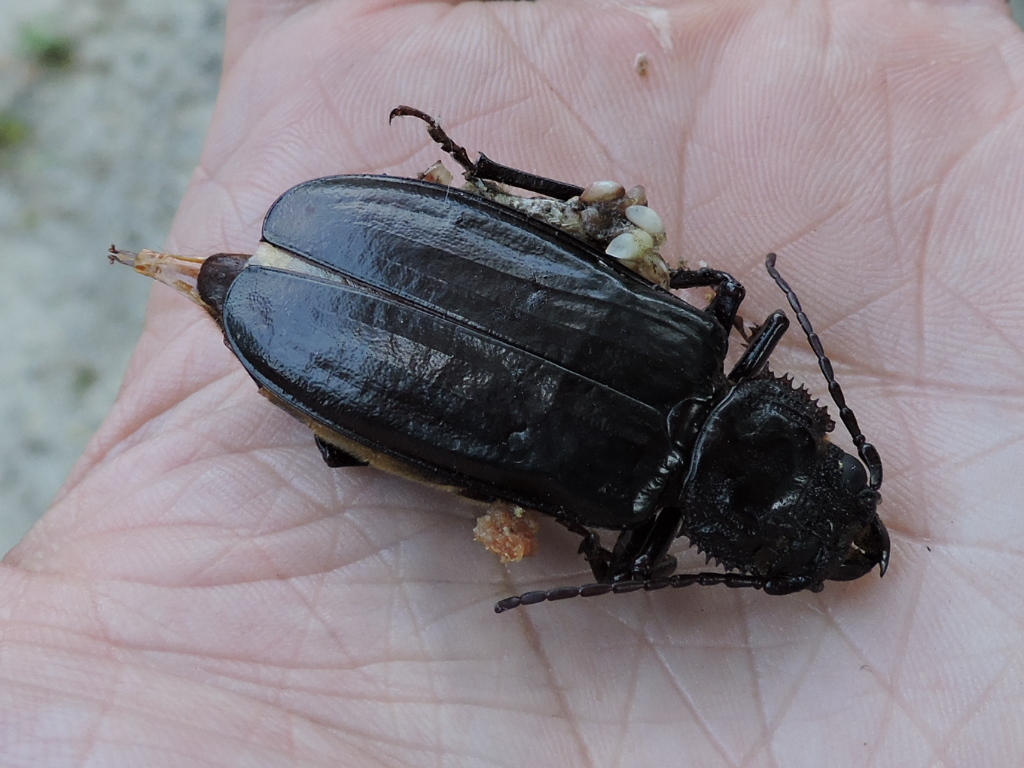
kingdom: Animalia
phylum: Arthropoda
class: Insecta
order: Coleoptera
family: Cerambycidae
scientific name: Cerambycidae
